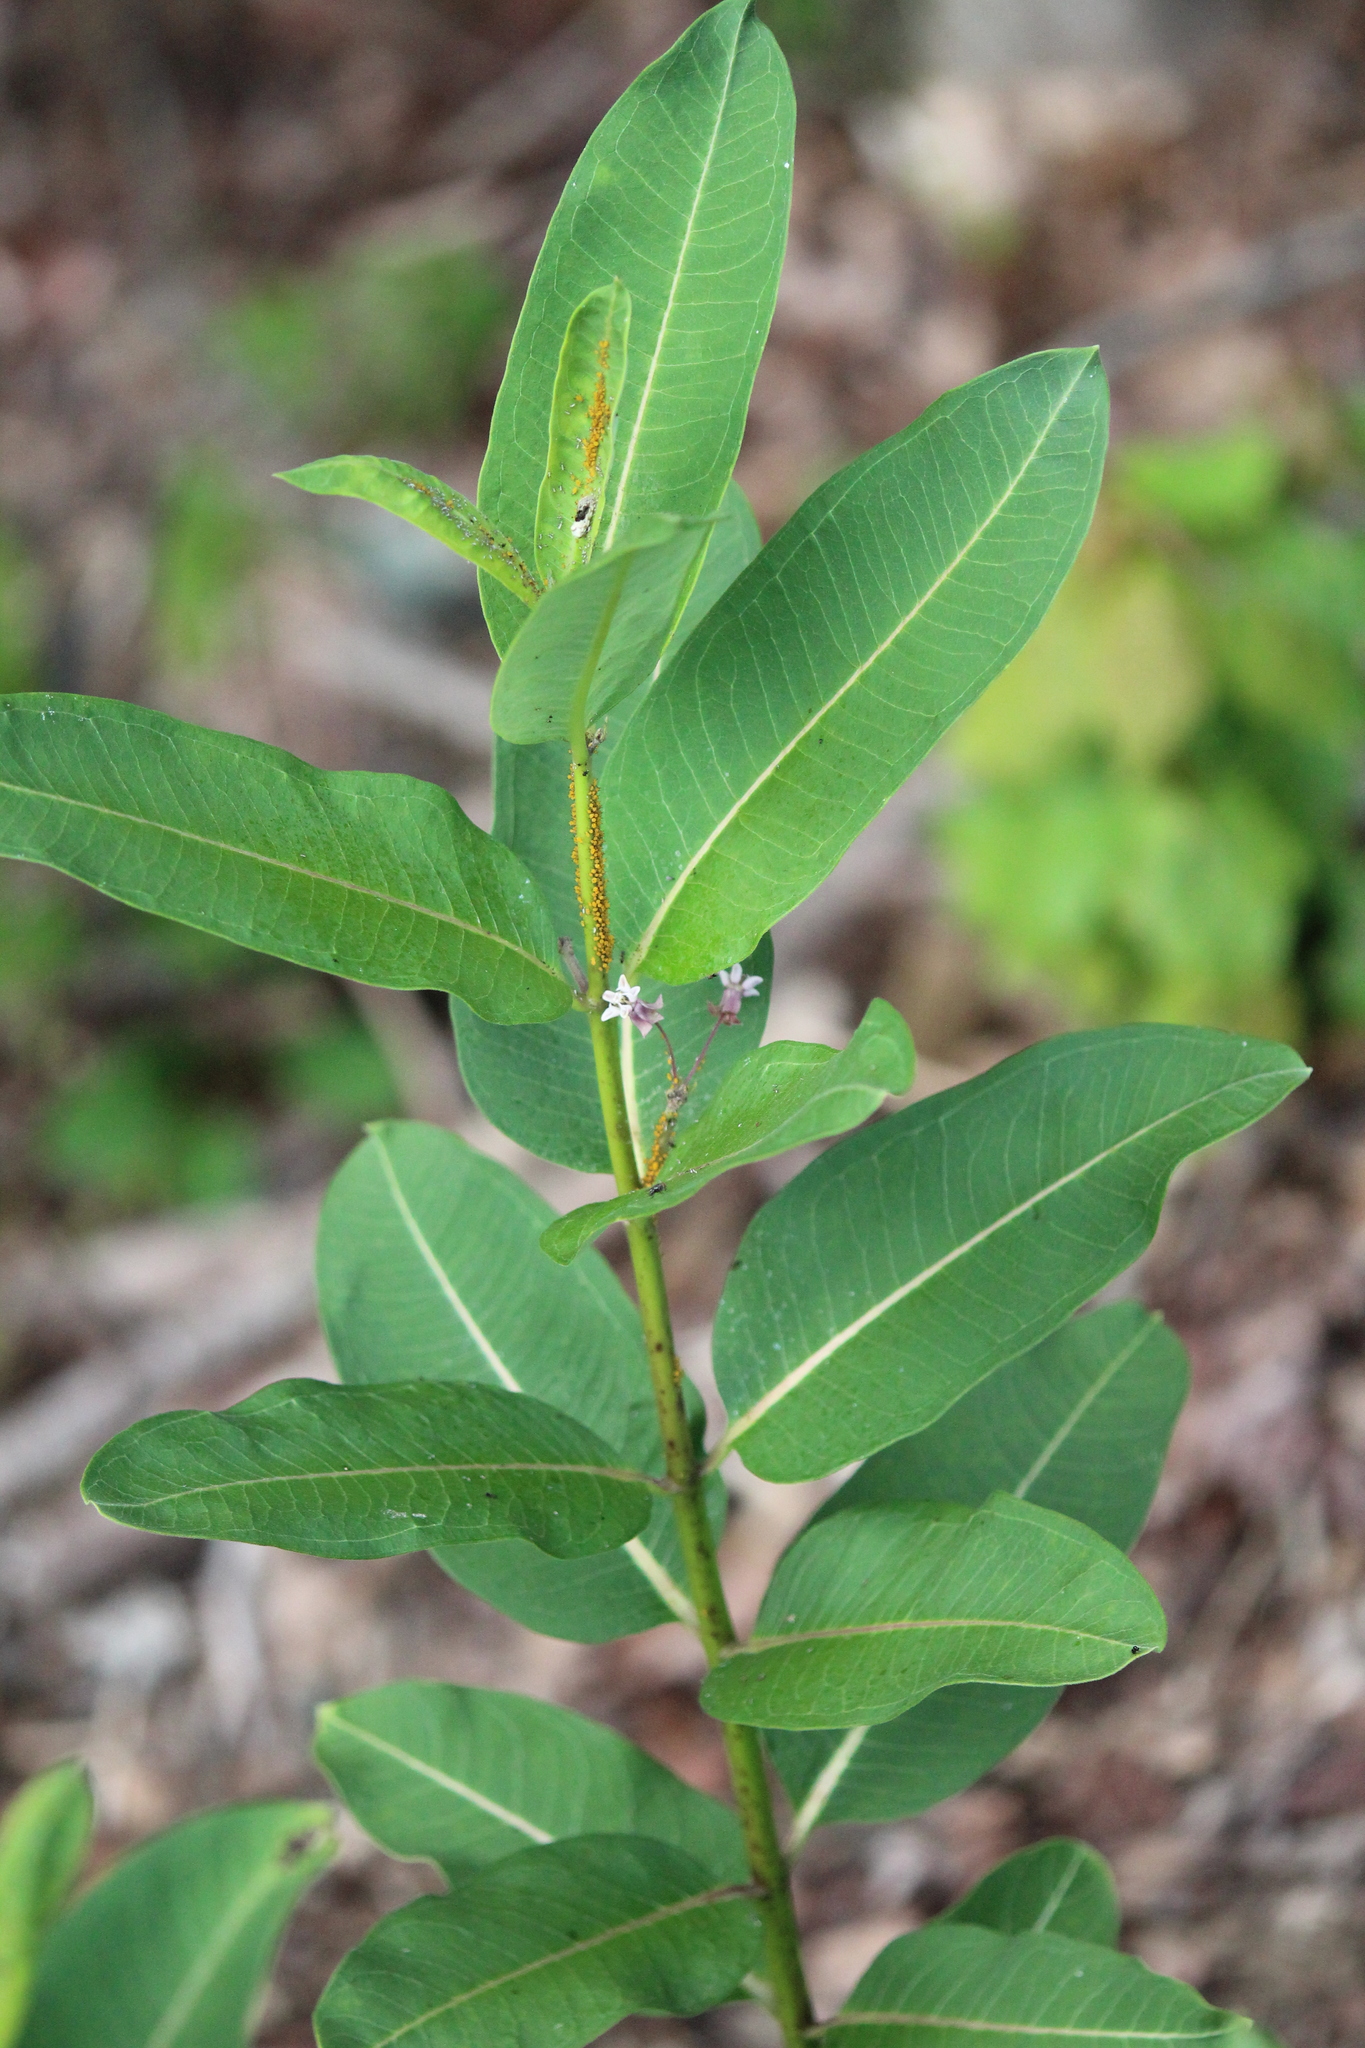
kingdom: Plantae
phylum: Tracheophyta
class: Magnoliopsida
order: Gentianales
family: Apocynaceae
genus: Asclepias
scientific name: Asclepias syriaca
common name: Common milkweed
